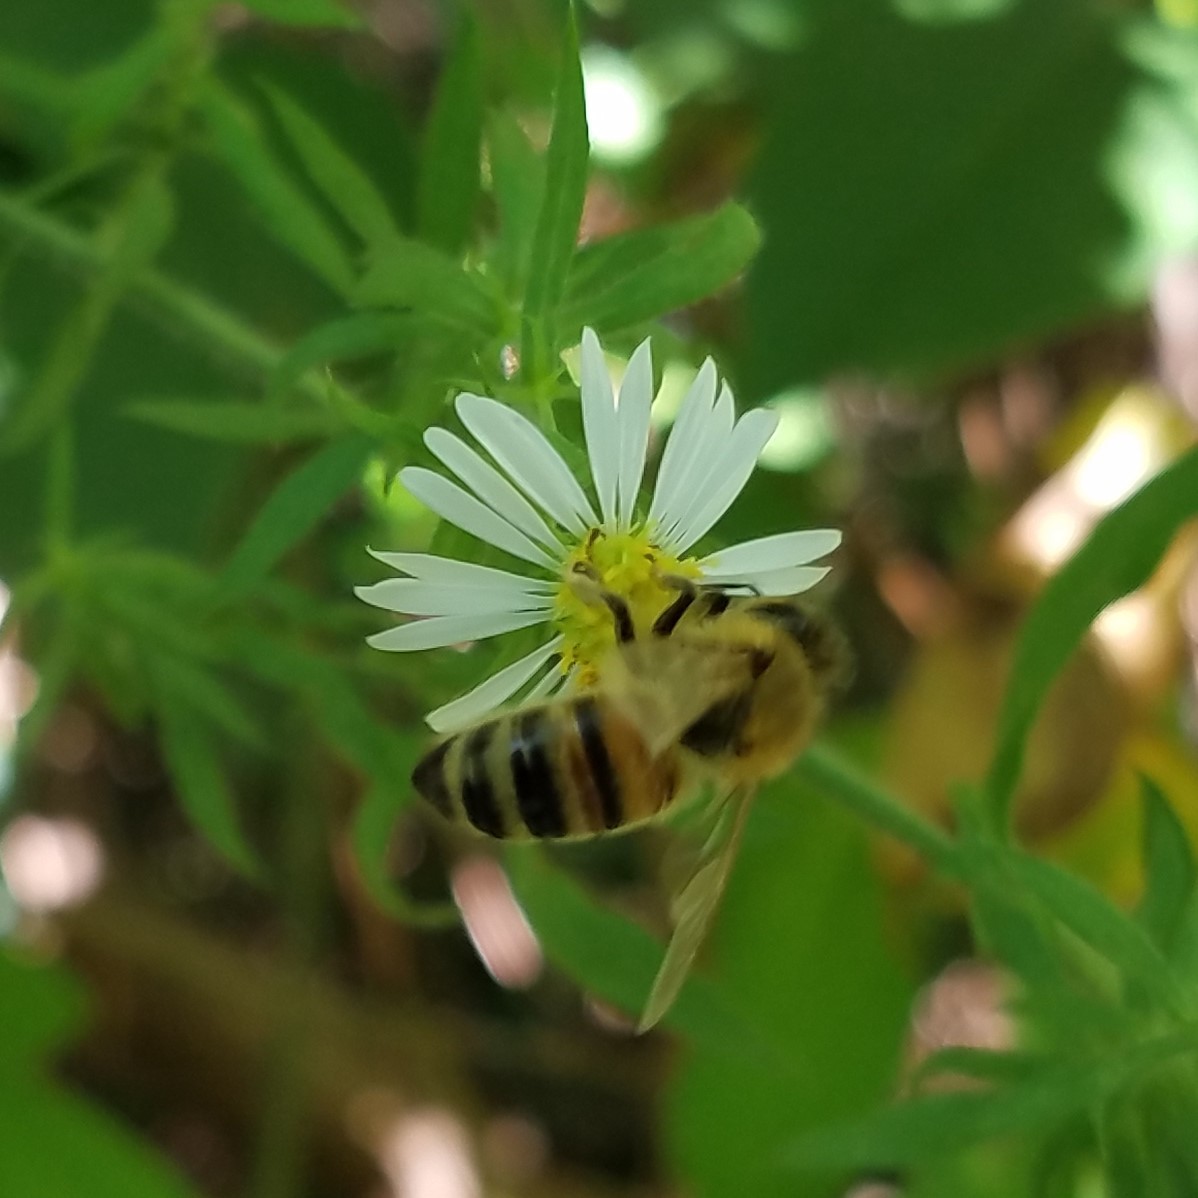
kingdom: Animalia
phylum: Arthropoda
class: Insecta
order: Hymenoptera
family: Apidae
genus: Apis
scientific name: Apis mellifera
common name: Honey bee
